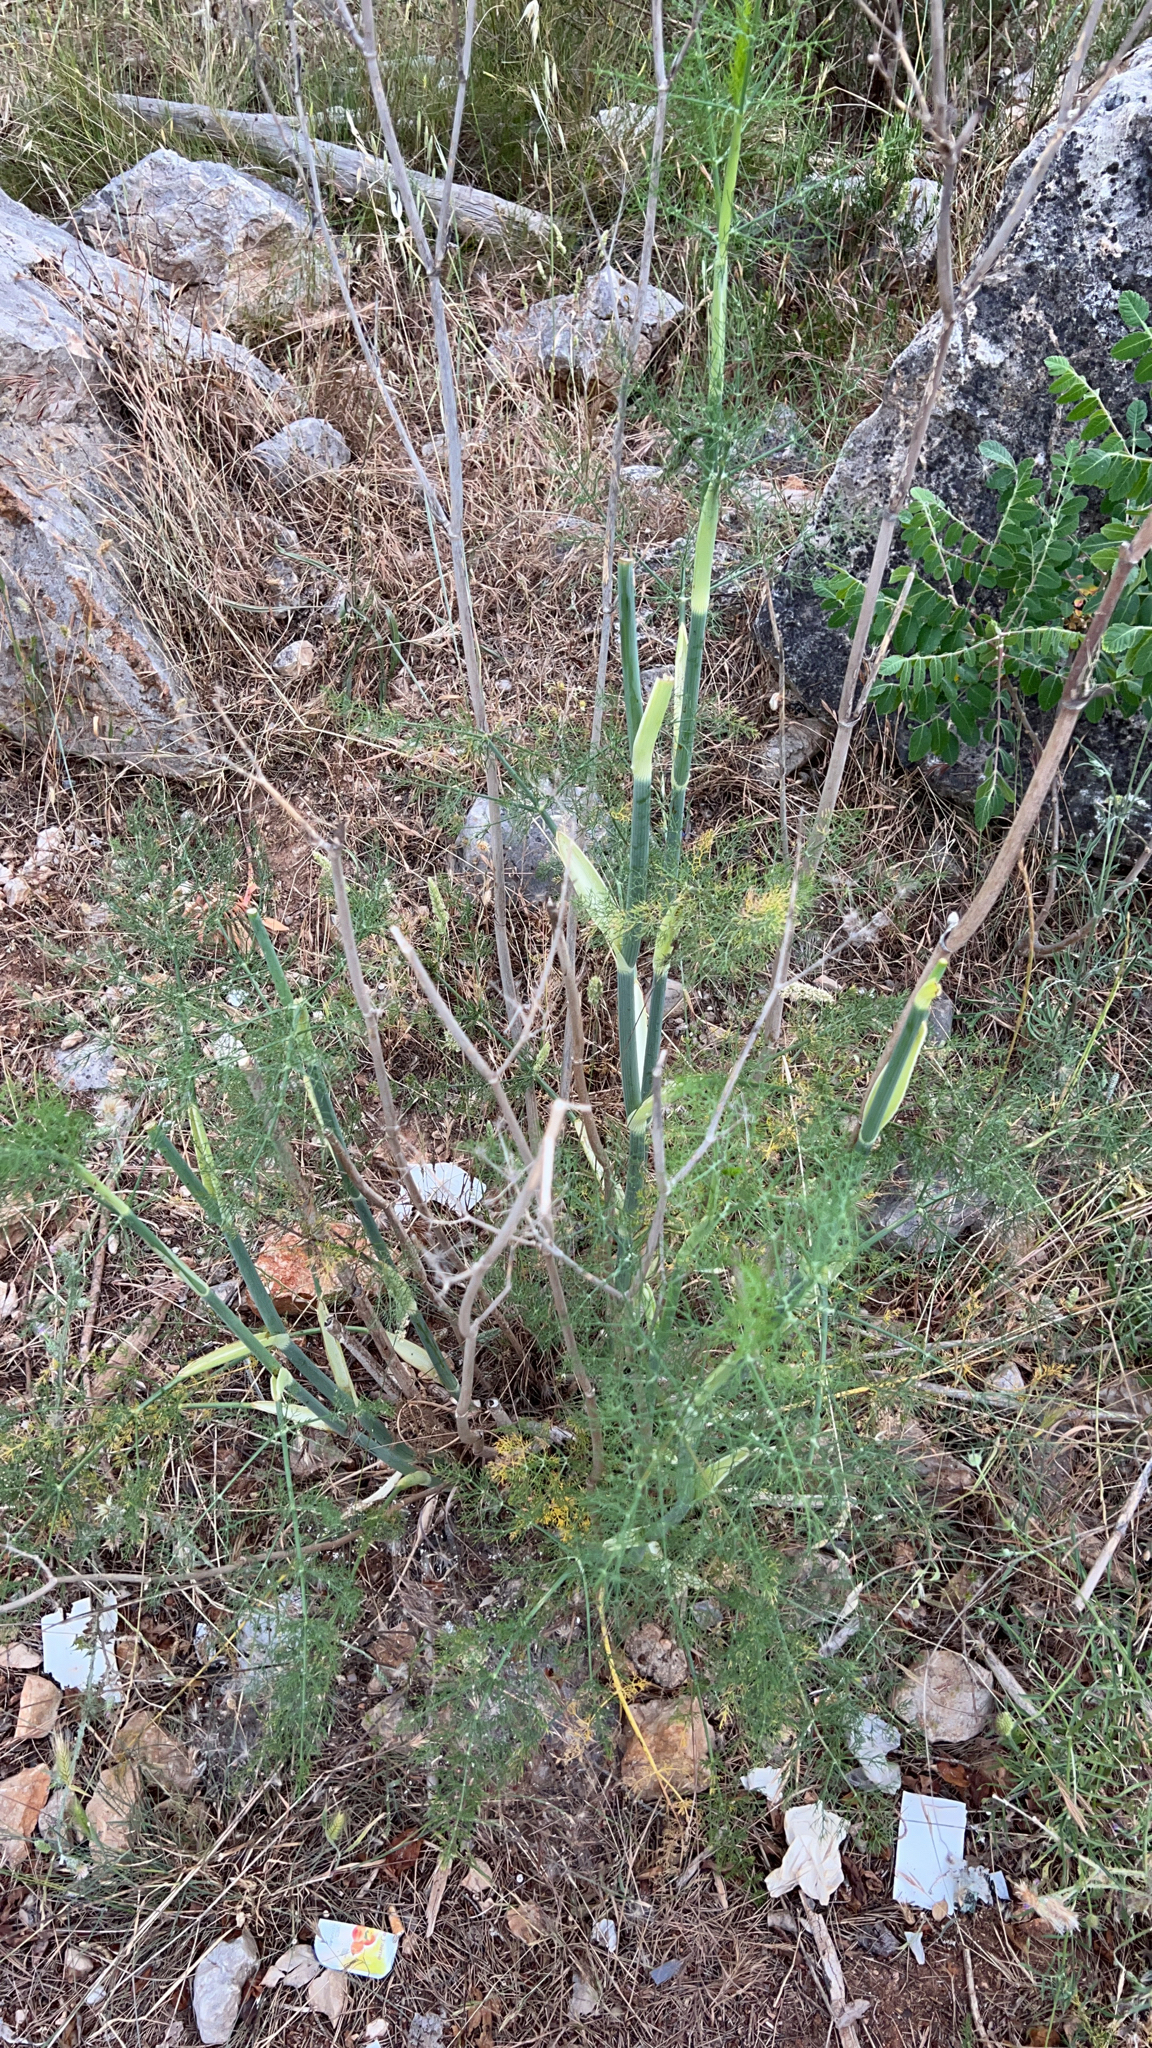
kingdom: Plantae
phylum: Tracheophyta
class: Magnoliopsida
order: Apiales
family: Apiaceae
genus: Foeniculum
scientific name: Foeniculum vulgare
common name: Fennel
